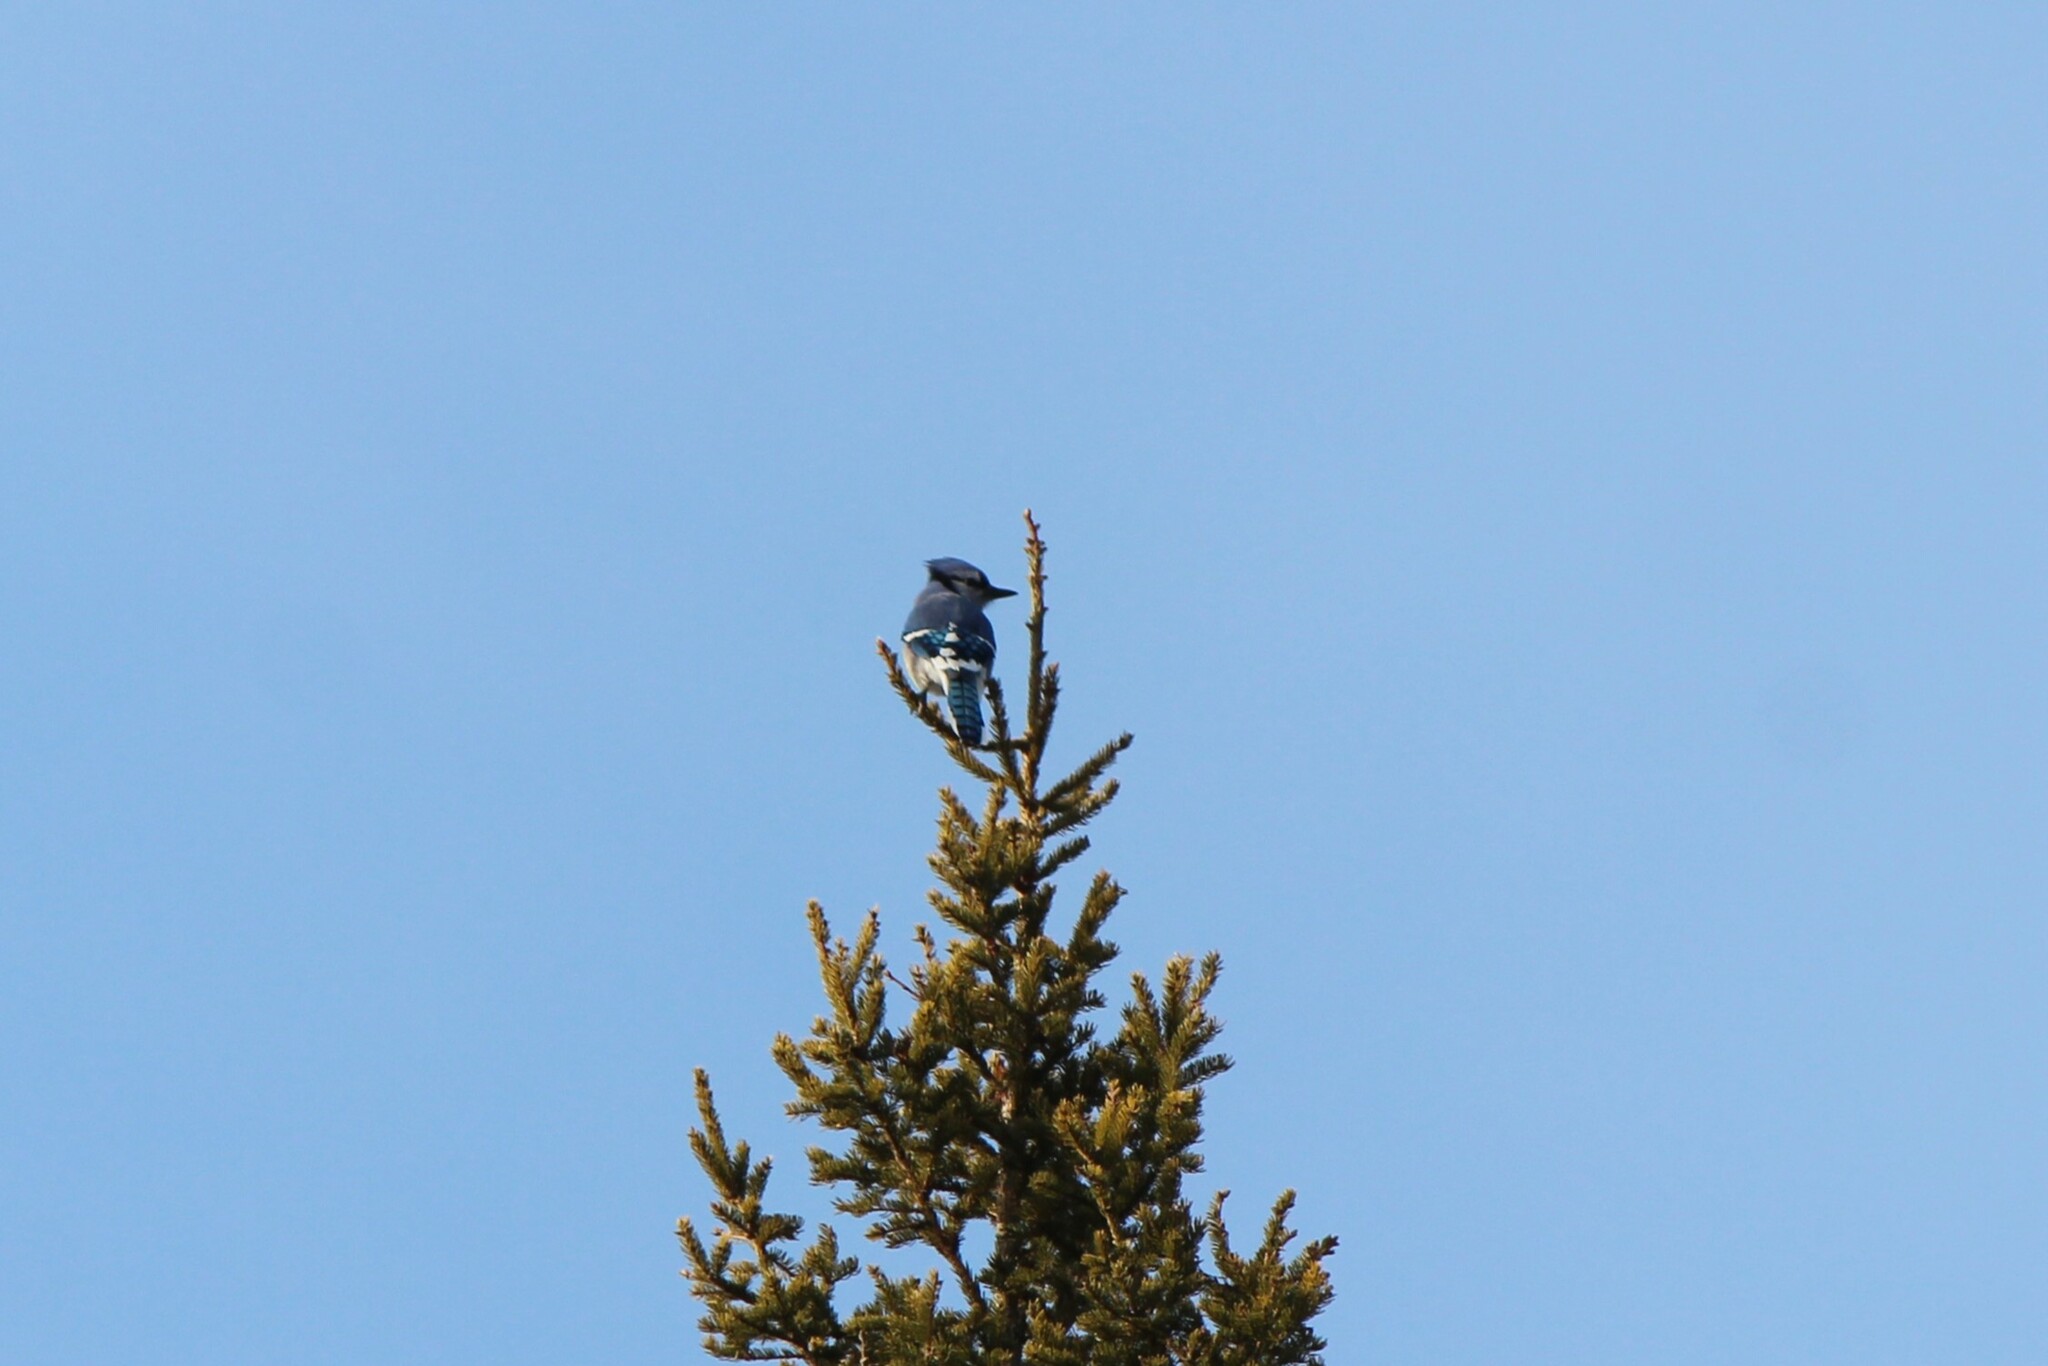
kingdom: Animalia
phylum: Chordata
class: Aves
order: Passeriformes
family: Corvidae
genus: Cyanocitta
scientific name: Cyanocitta cristata
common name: Blue jay
